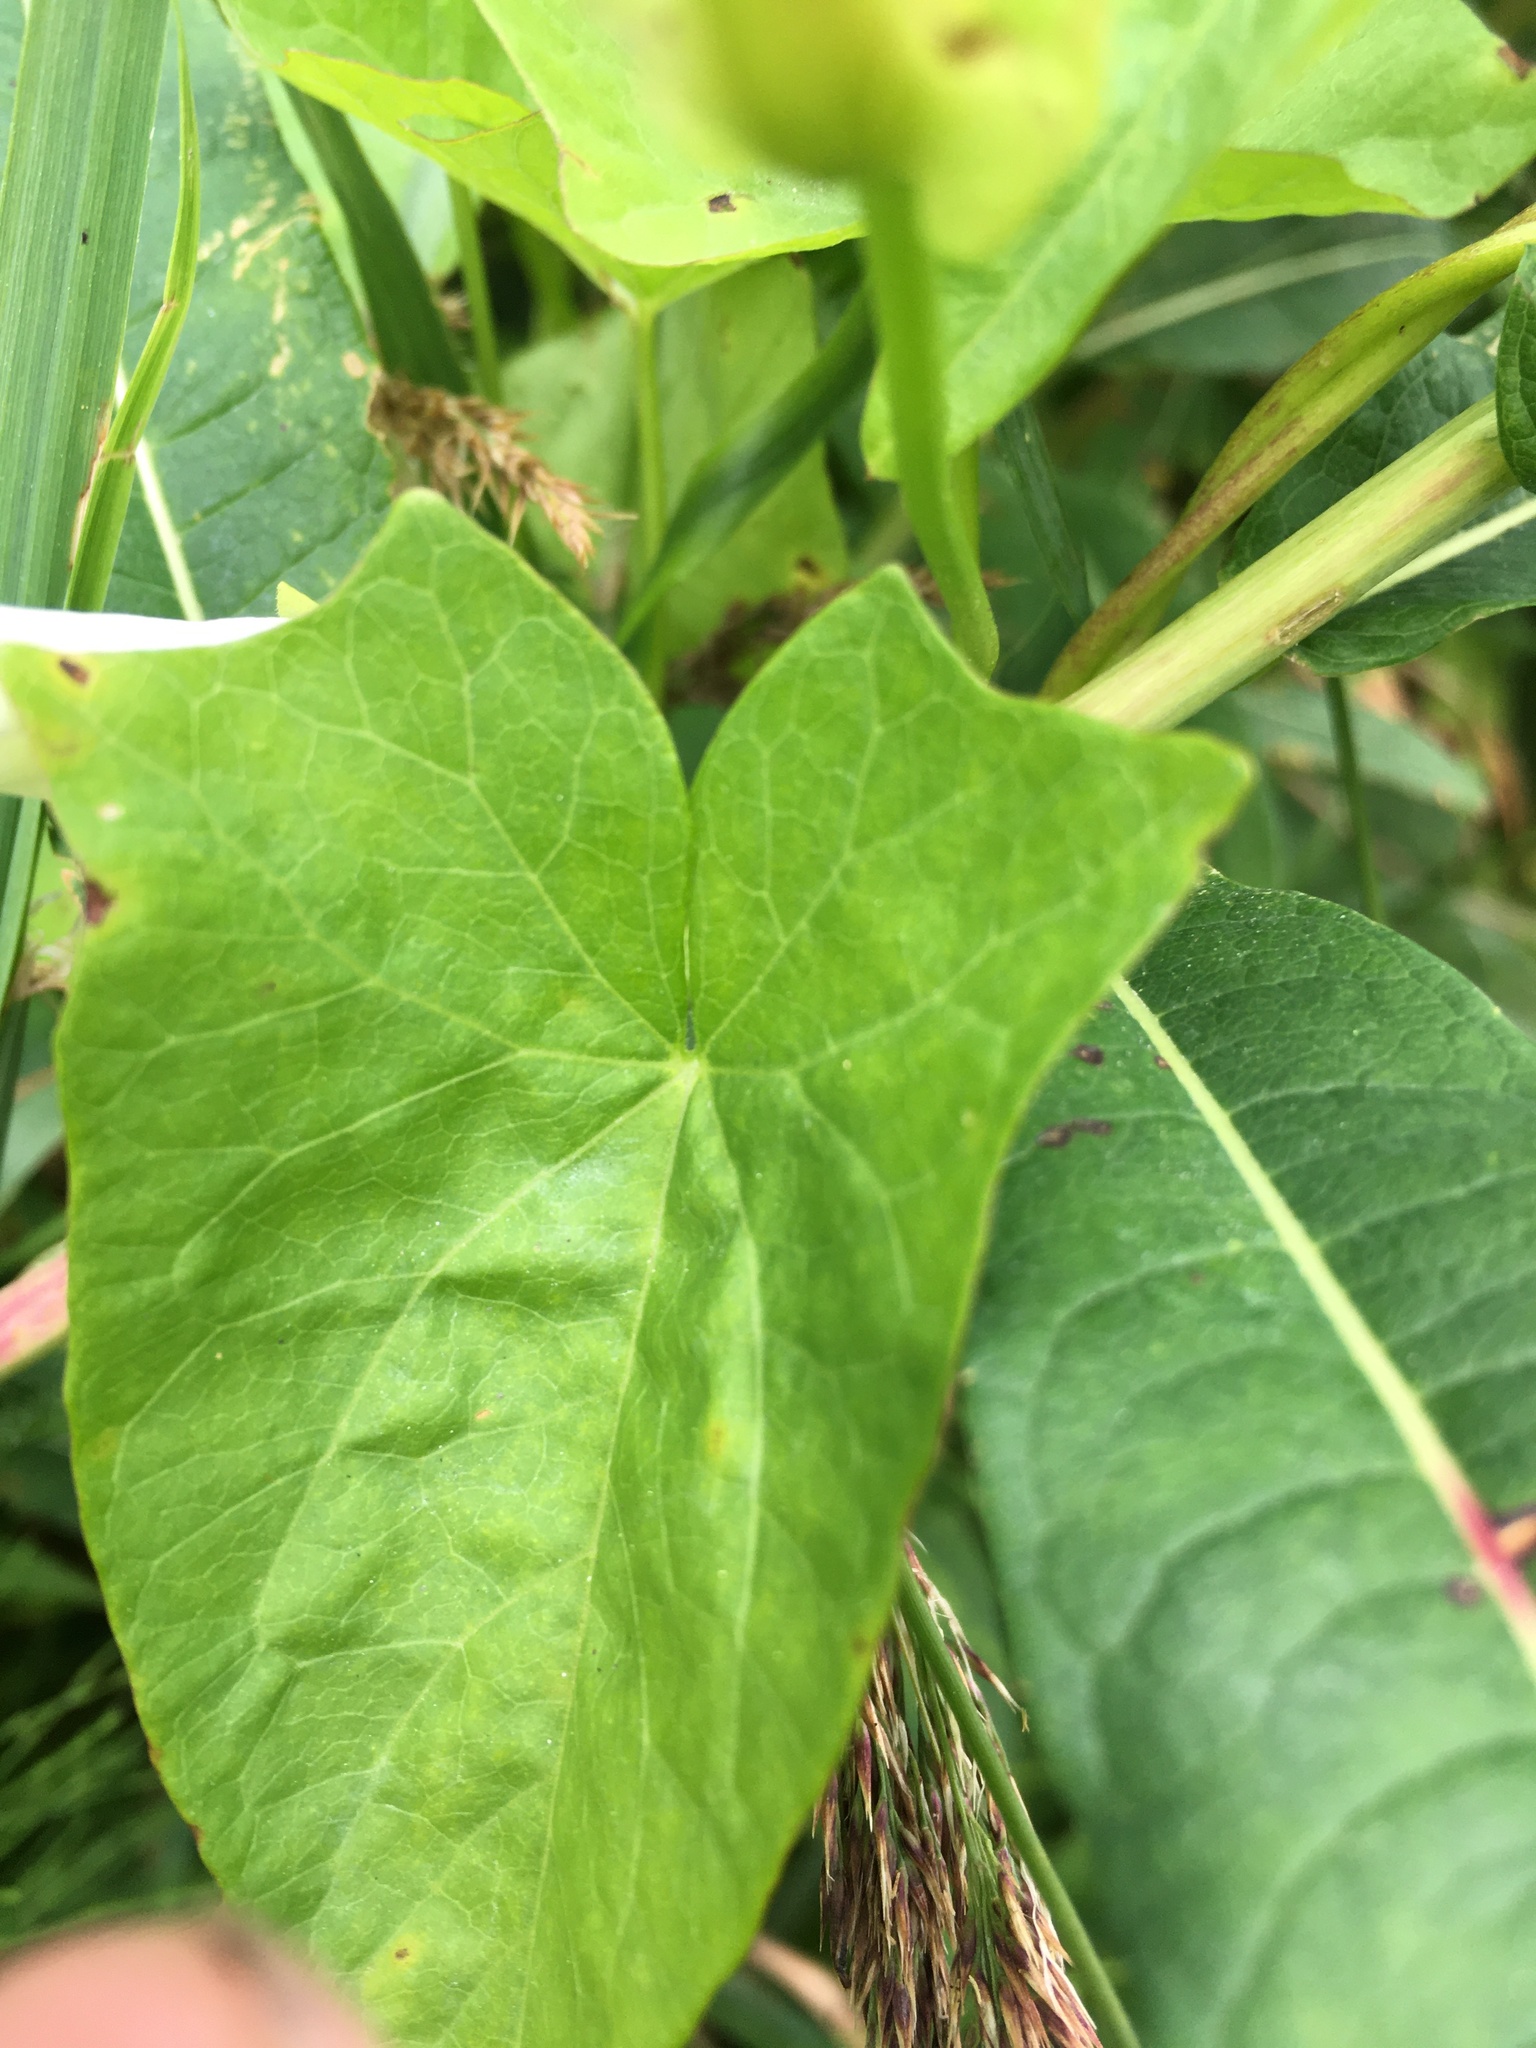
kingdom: Plantae
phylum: Tracheophyta
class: Magnoliopsida
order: Solanales
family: Convolvulaceae
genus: Calystegia
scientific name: Calystegia sepium
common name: Hedge bindweed
